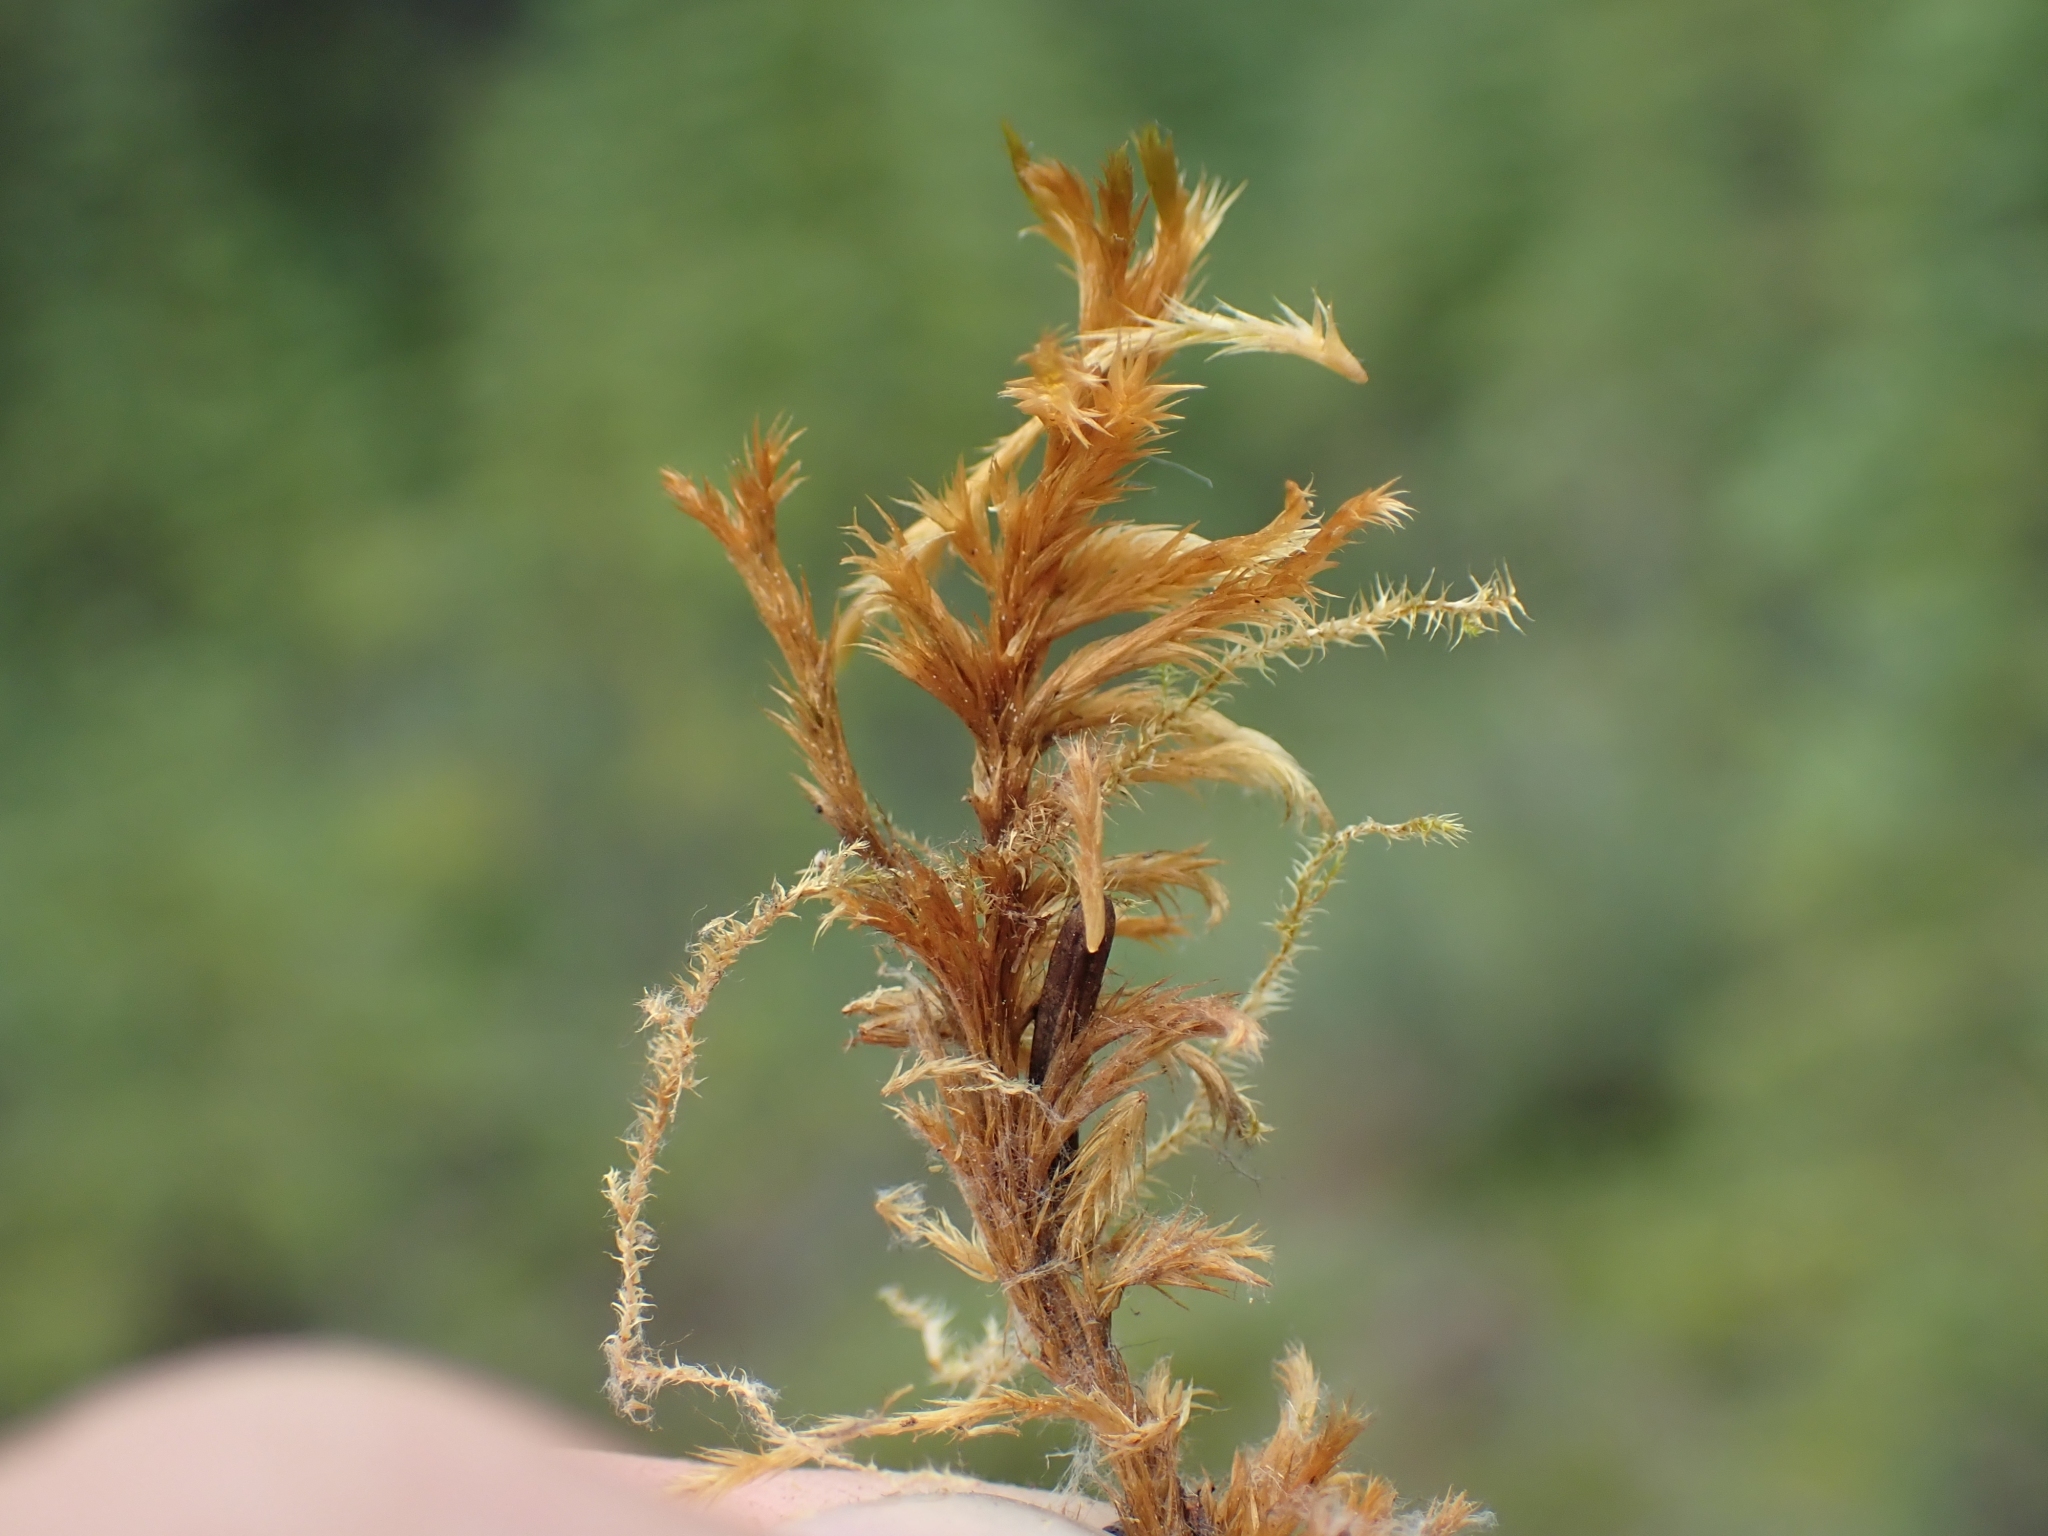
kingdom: Plantae
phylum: Bryophyta
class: Bryopsida
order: Hypnales
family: Amblystegiaceae
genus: Tomentypnum
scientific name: Tomentypnum nitens
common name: Golden fuzzy fen moss
